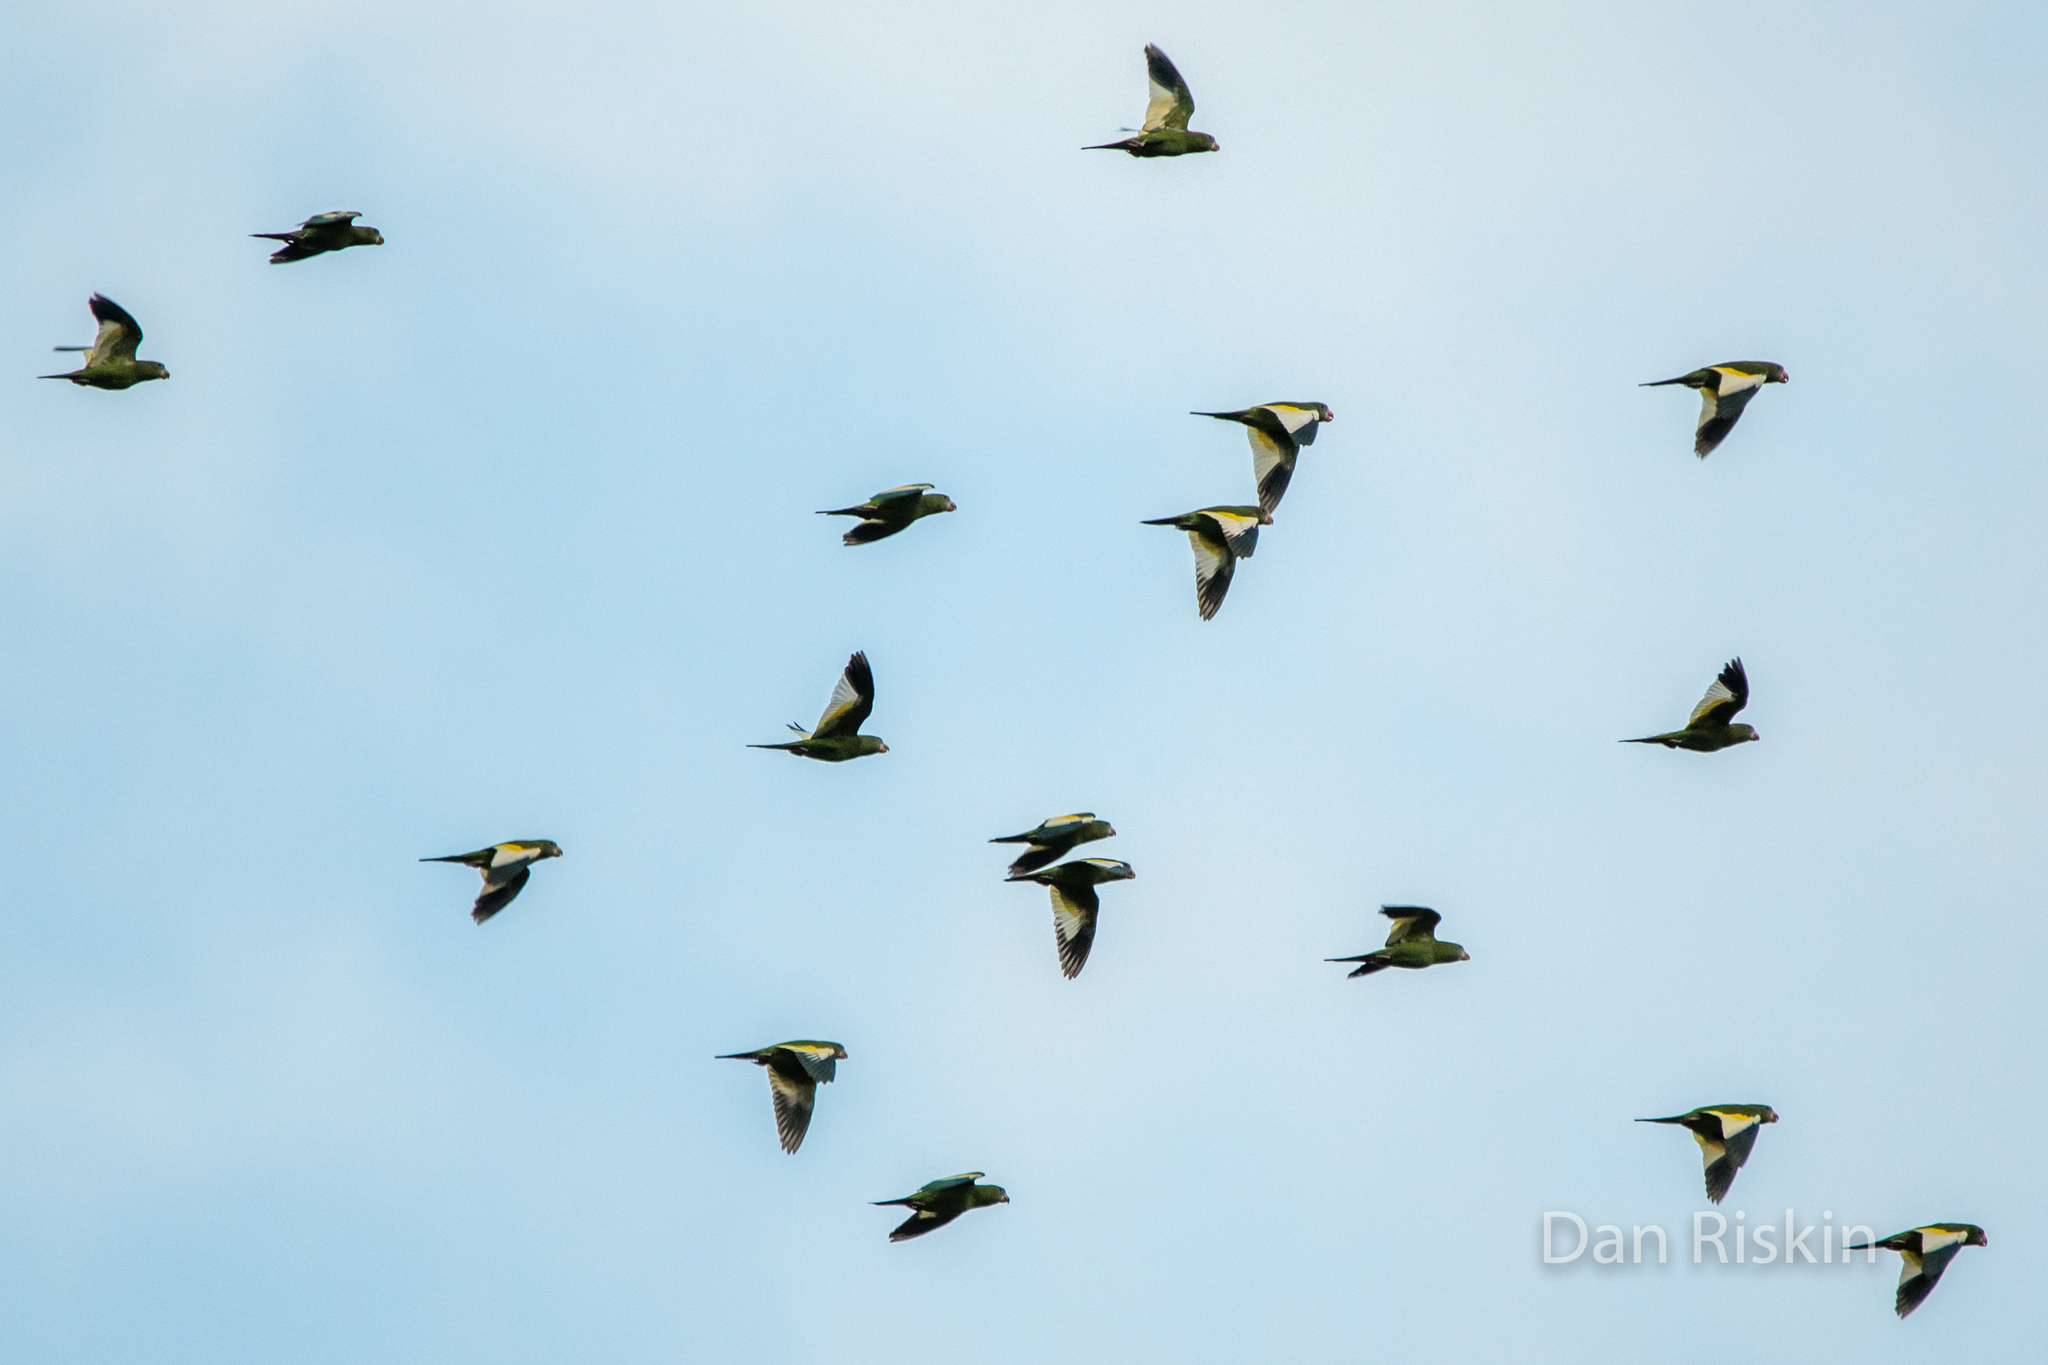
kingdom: Animalia
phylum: Chordata
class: Aves
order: Psittaciformes
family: Psittacidae
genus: Brotogeris
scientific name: Brotogeris versicolurus
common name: White-winged parakeet
